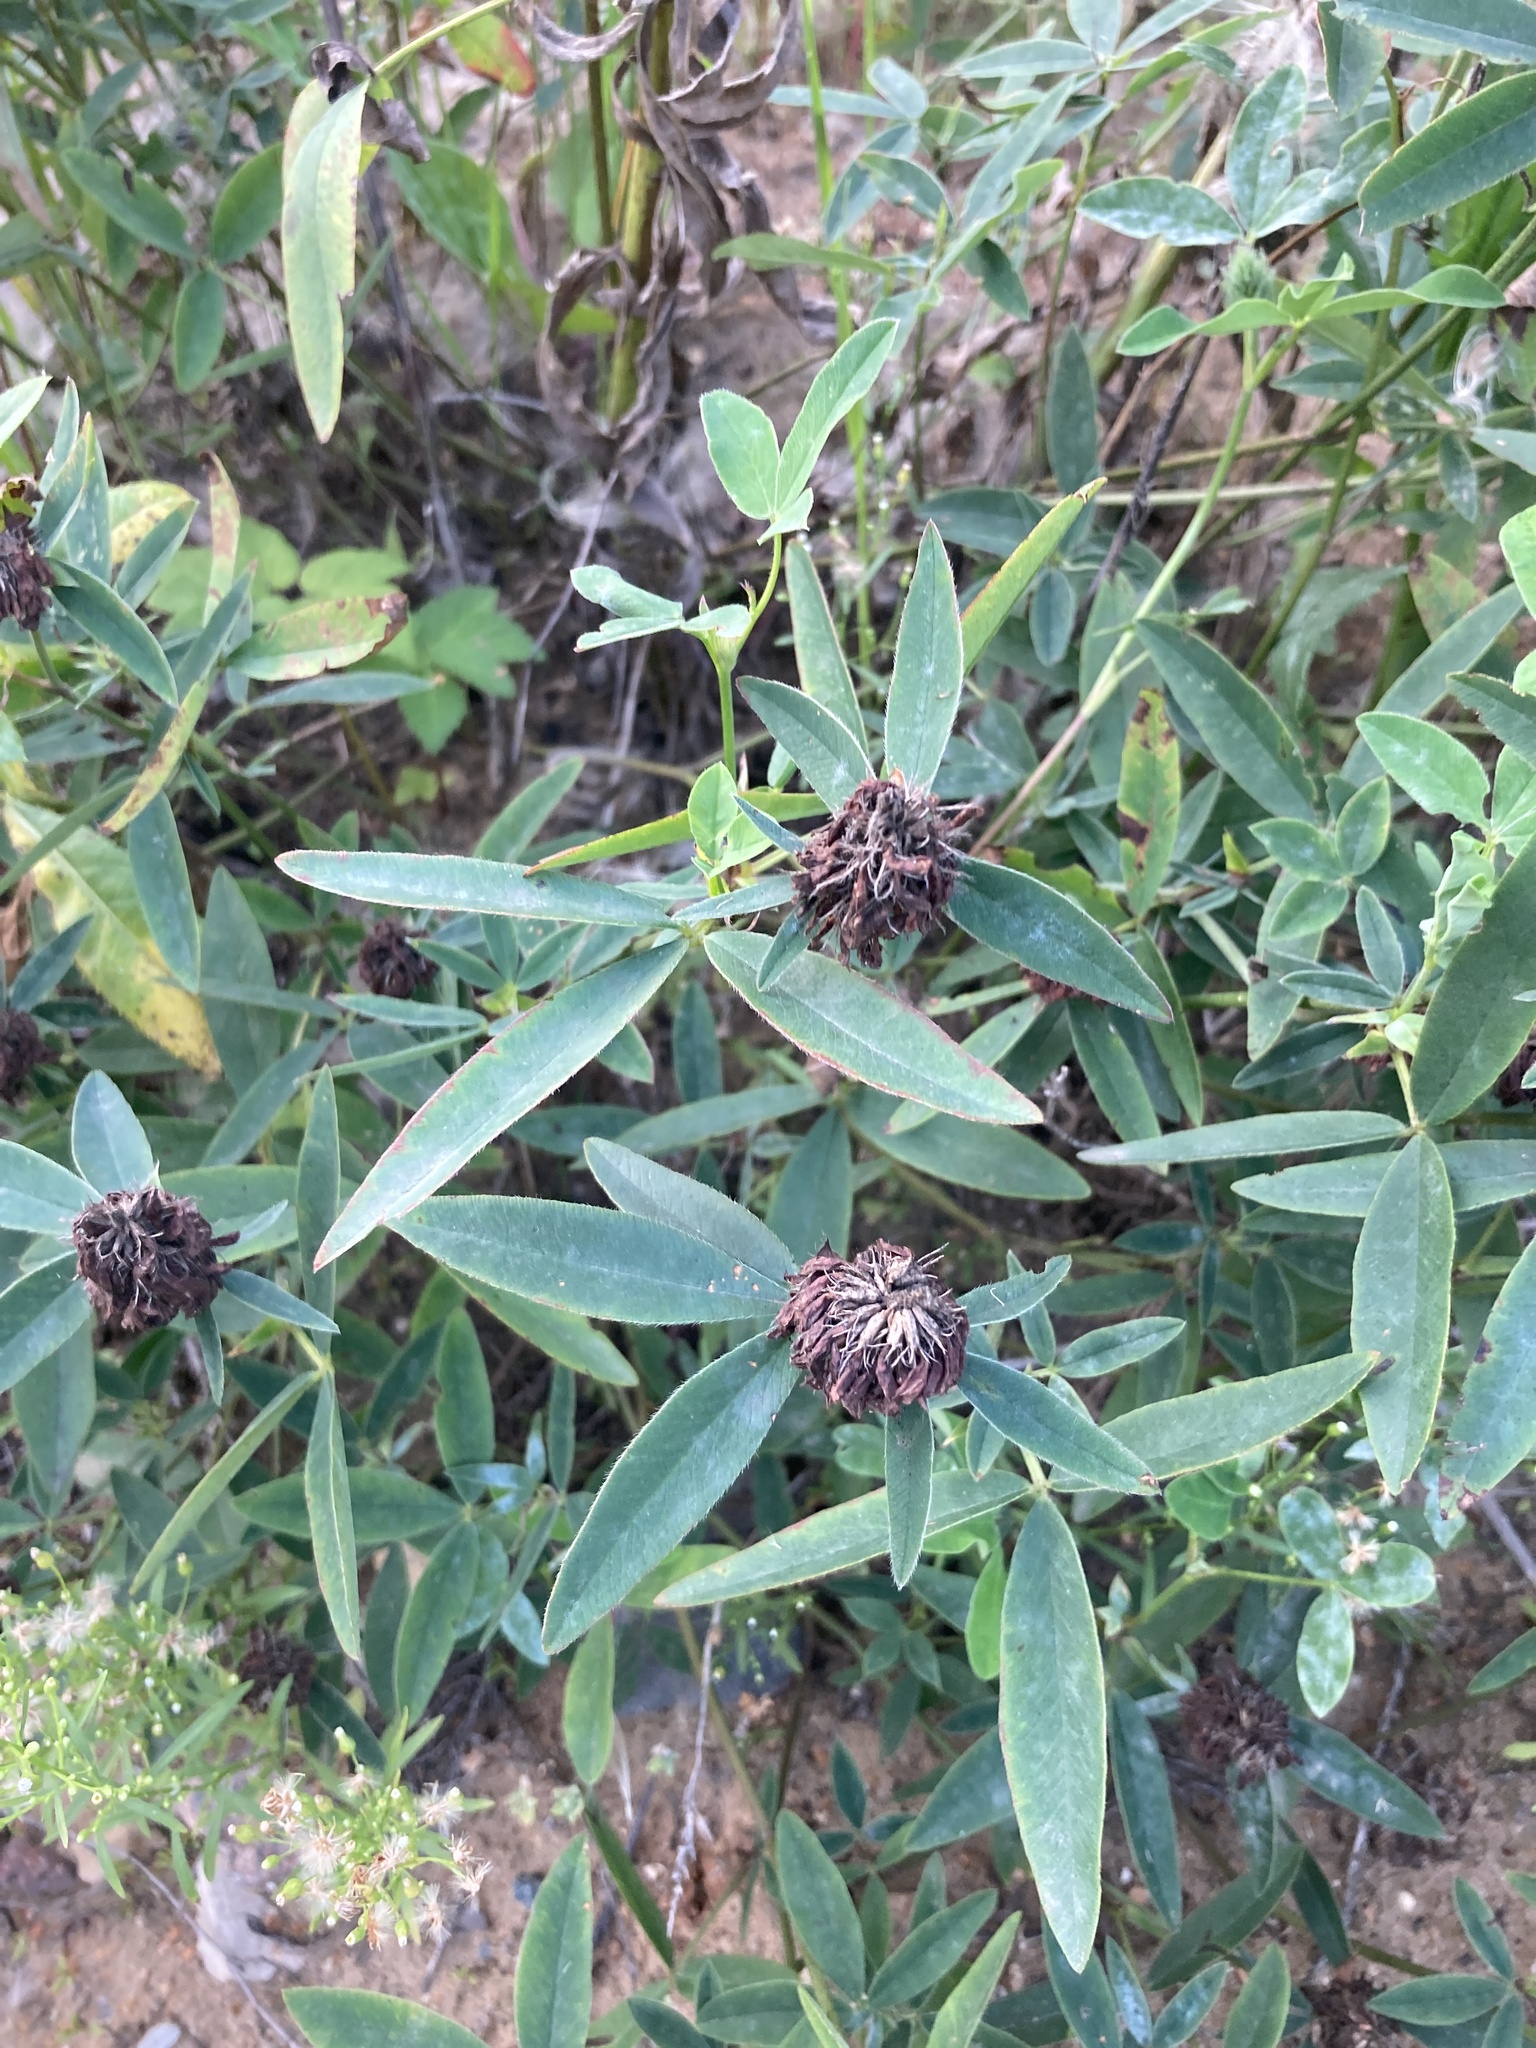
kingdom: Plantae
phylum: Tracheophyta
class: Magnoliopsida
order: Fabales
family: Fabaceae
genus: Trifolium
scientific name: Trifolium alpestre
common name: Owl-head clover
